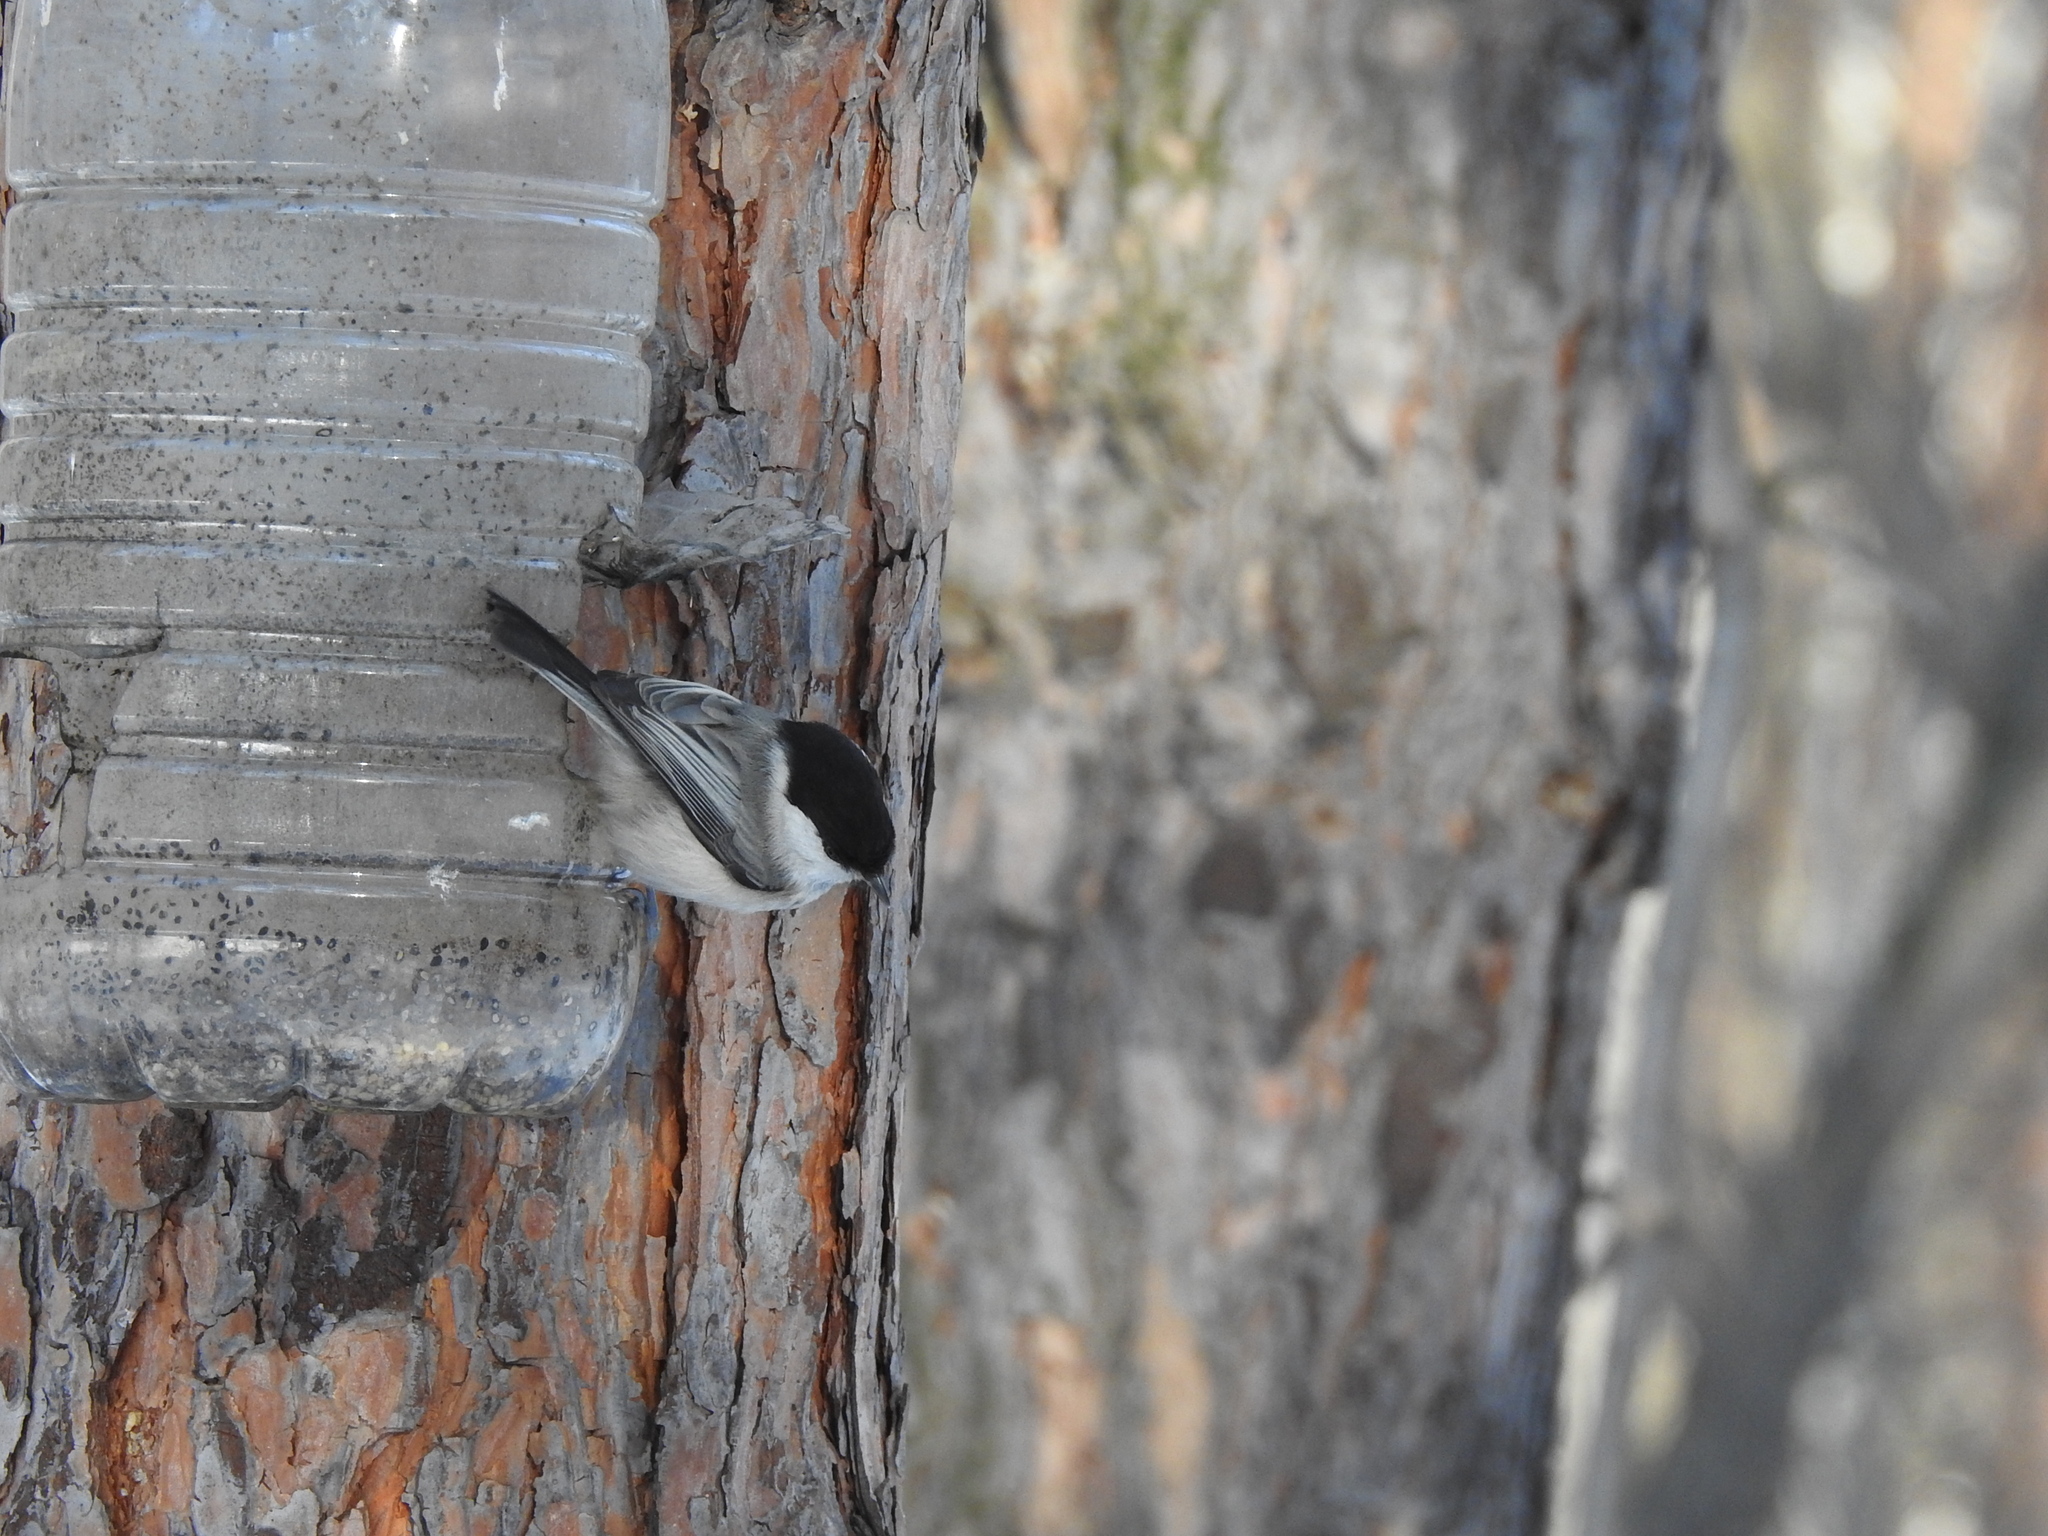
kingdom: Animalia
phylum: Chordata
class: Aves
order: Passeriformes
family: Paridae
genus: Poecile
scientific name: Poecile montanus
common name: Willow tit
